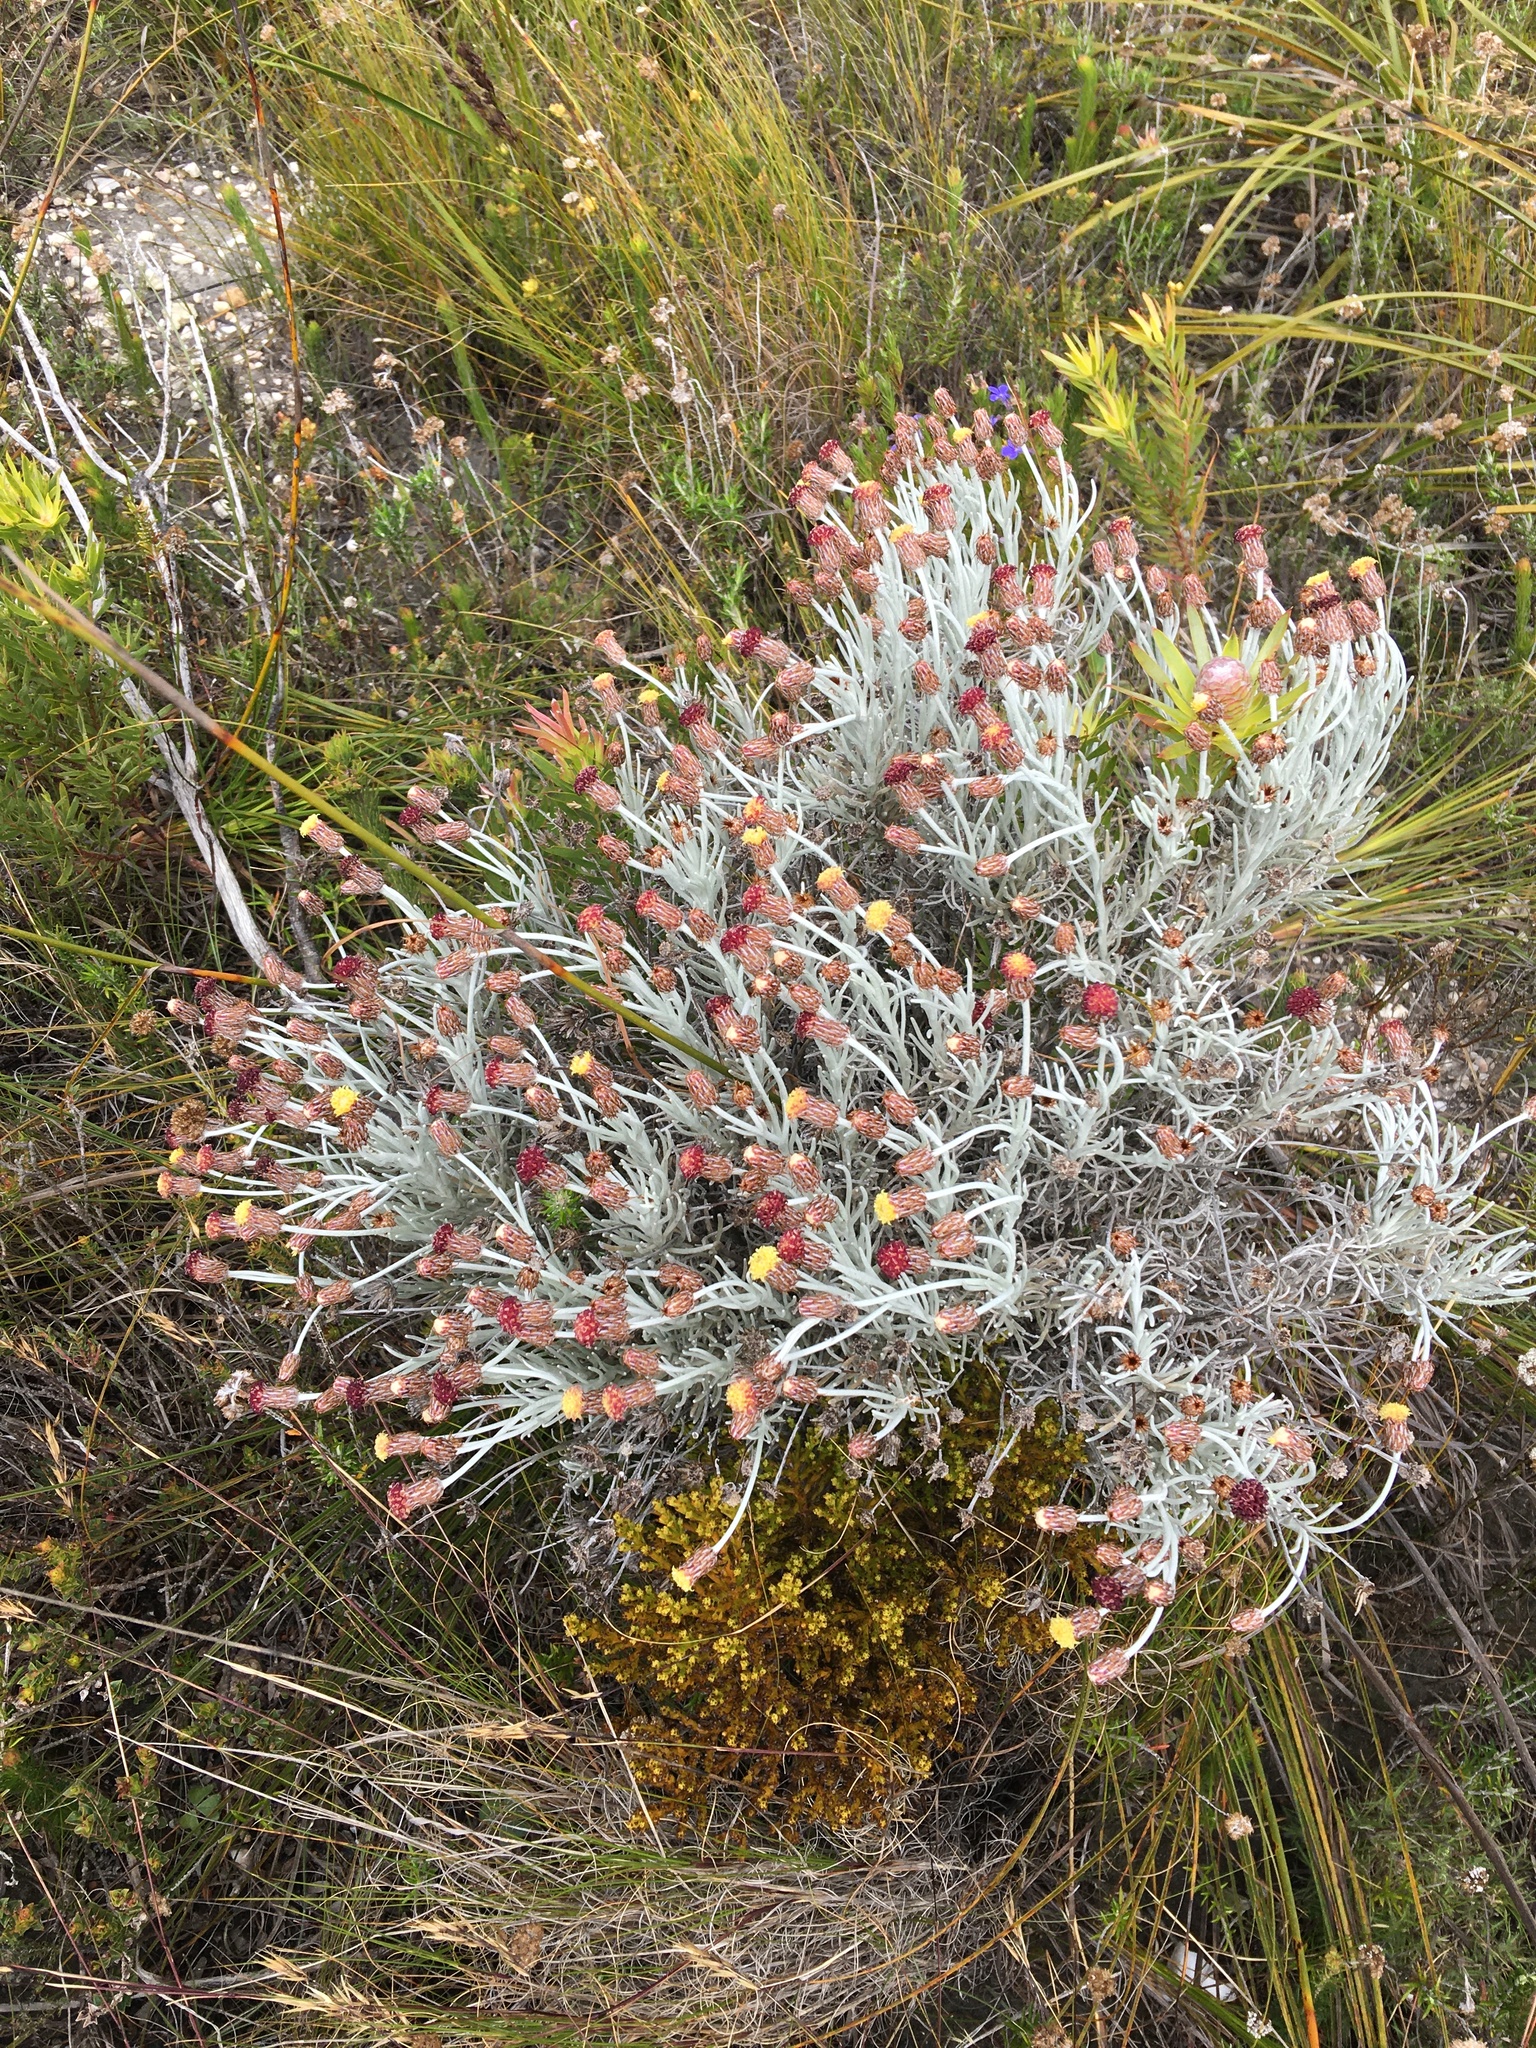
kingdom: Plantae
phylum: Tracheophyta
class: Magnoliopsida
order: Asterales
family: Asteraceae
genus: Syncarpha
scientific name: Syncarpha gnaphaloides
